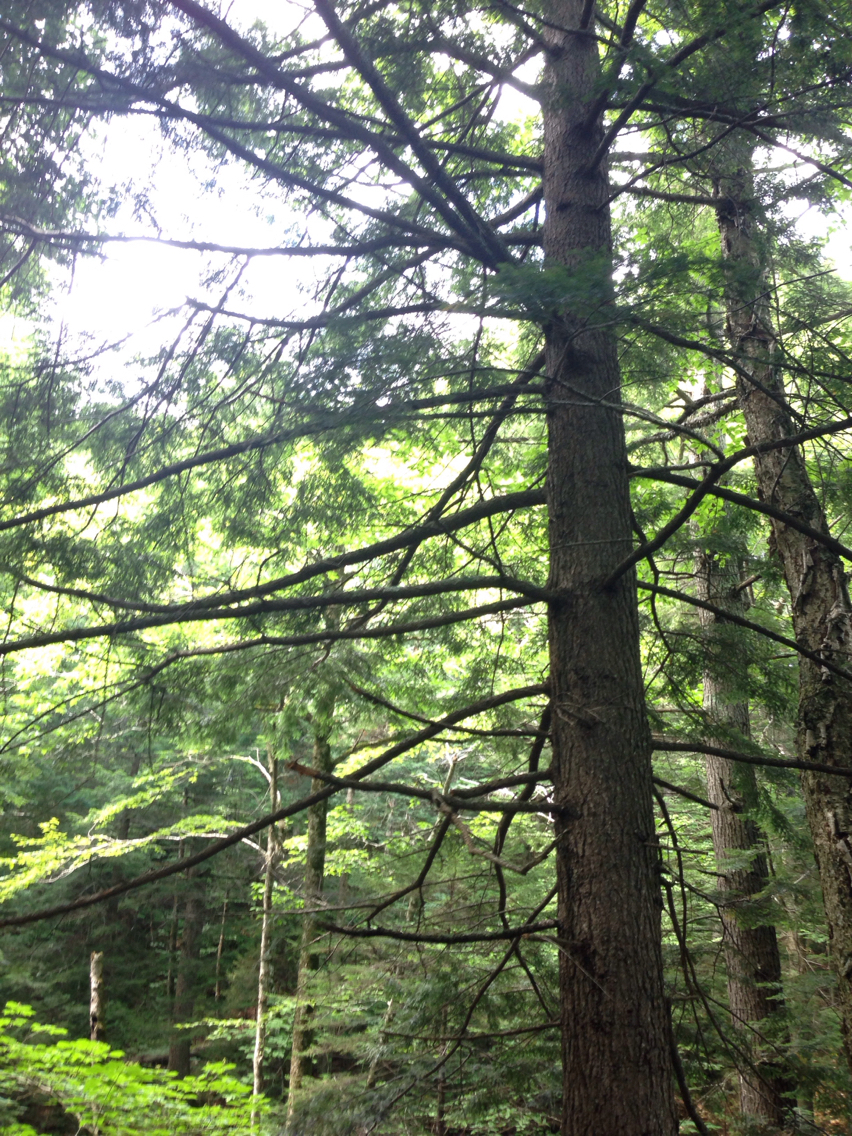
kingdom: Plantae
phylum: Tracheophyta
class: Pinopsida
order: Pinales
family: Pinaceae
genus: Tsuga
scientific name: Tsuga canadensis
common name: Eastern hemlock
